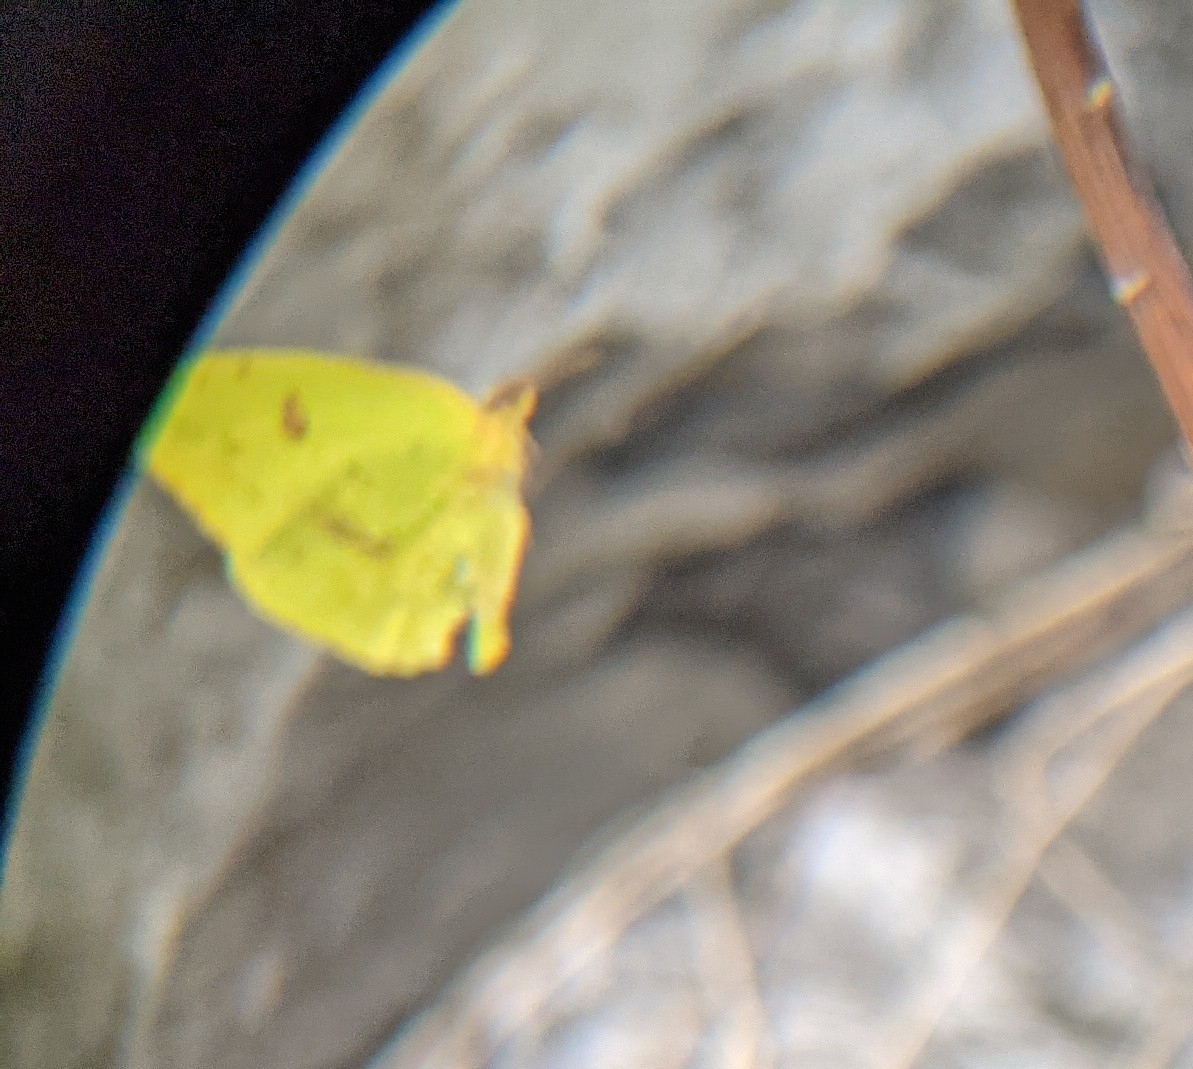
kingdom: Animalia
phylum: Arthropoda
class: Insecta
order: Lepidoptera
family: Pieridae
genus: Phoebis
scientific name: Phoebis sennae
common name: Cloudless sulphur
